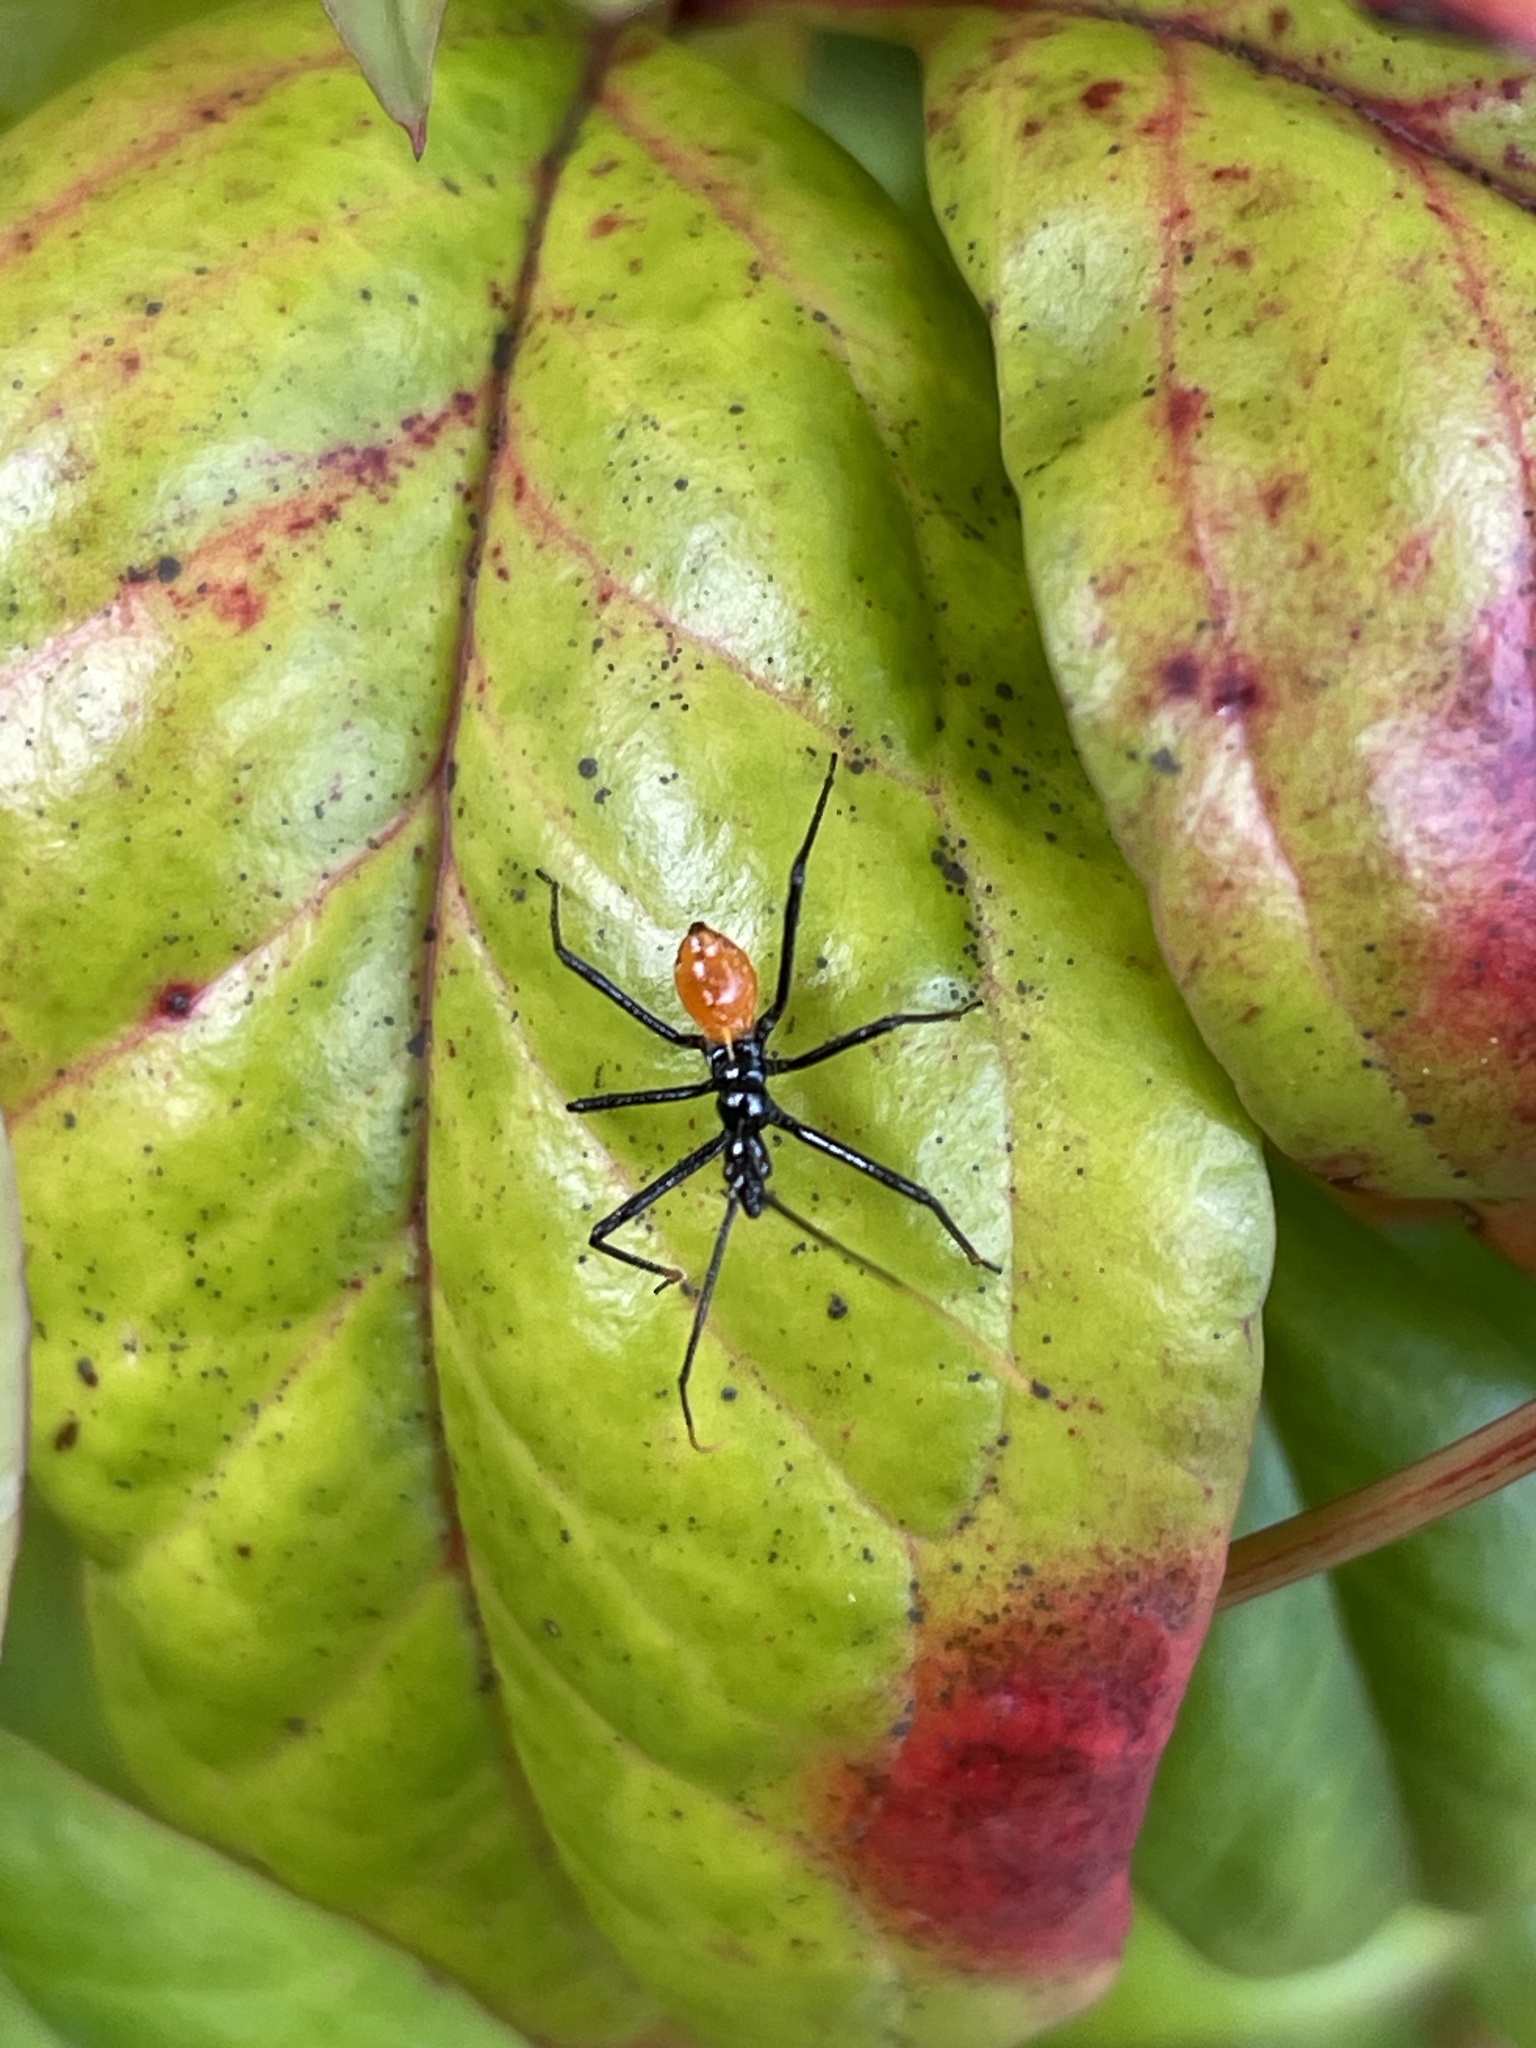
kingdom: Animalia
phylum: Arthropoda
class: Insecta
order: Hemiptera
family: Reduviidae
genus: Pristhesancus
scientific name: Pristhesancus plagipennis
